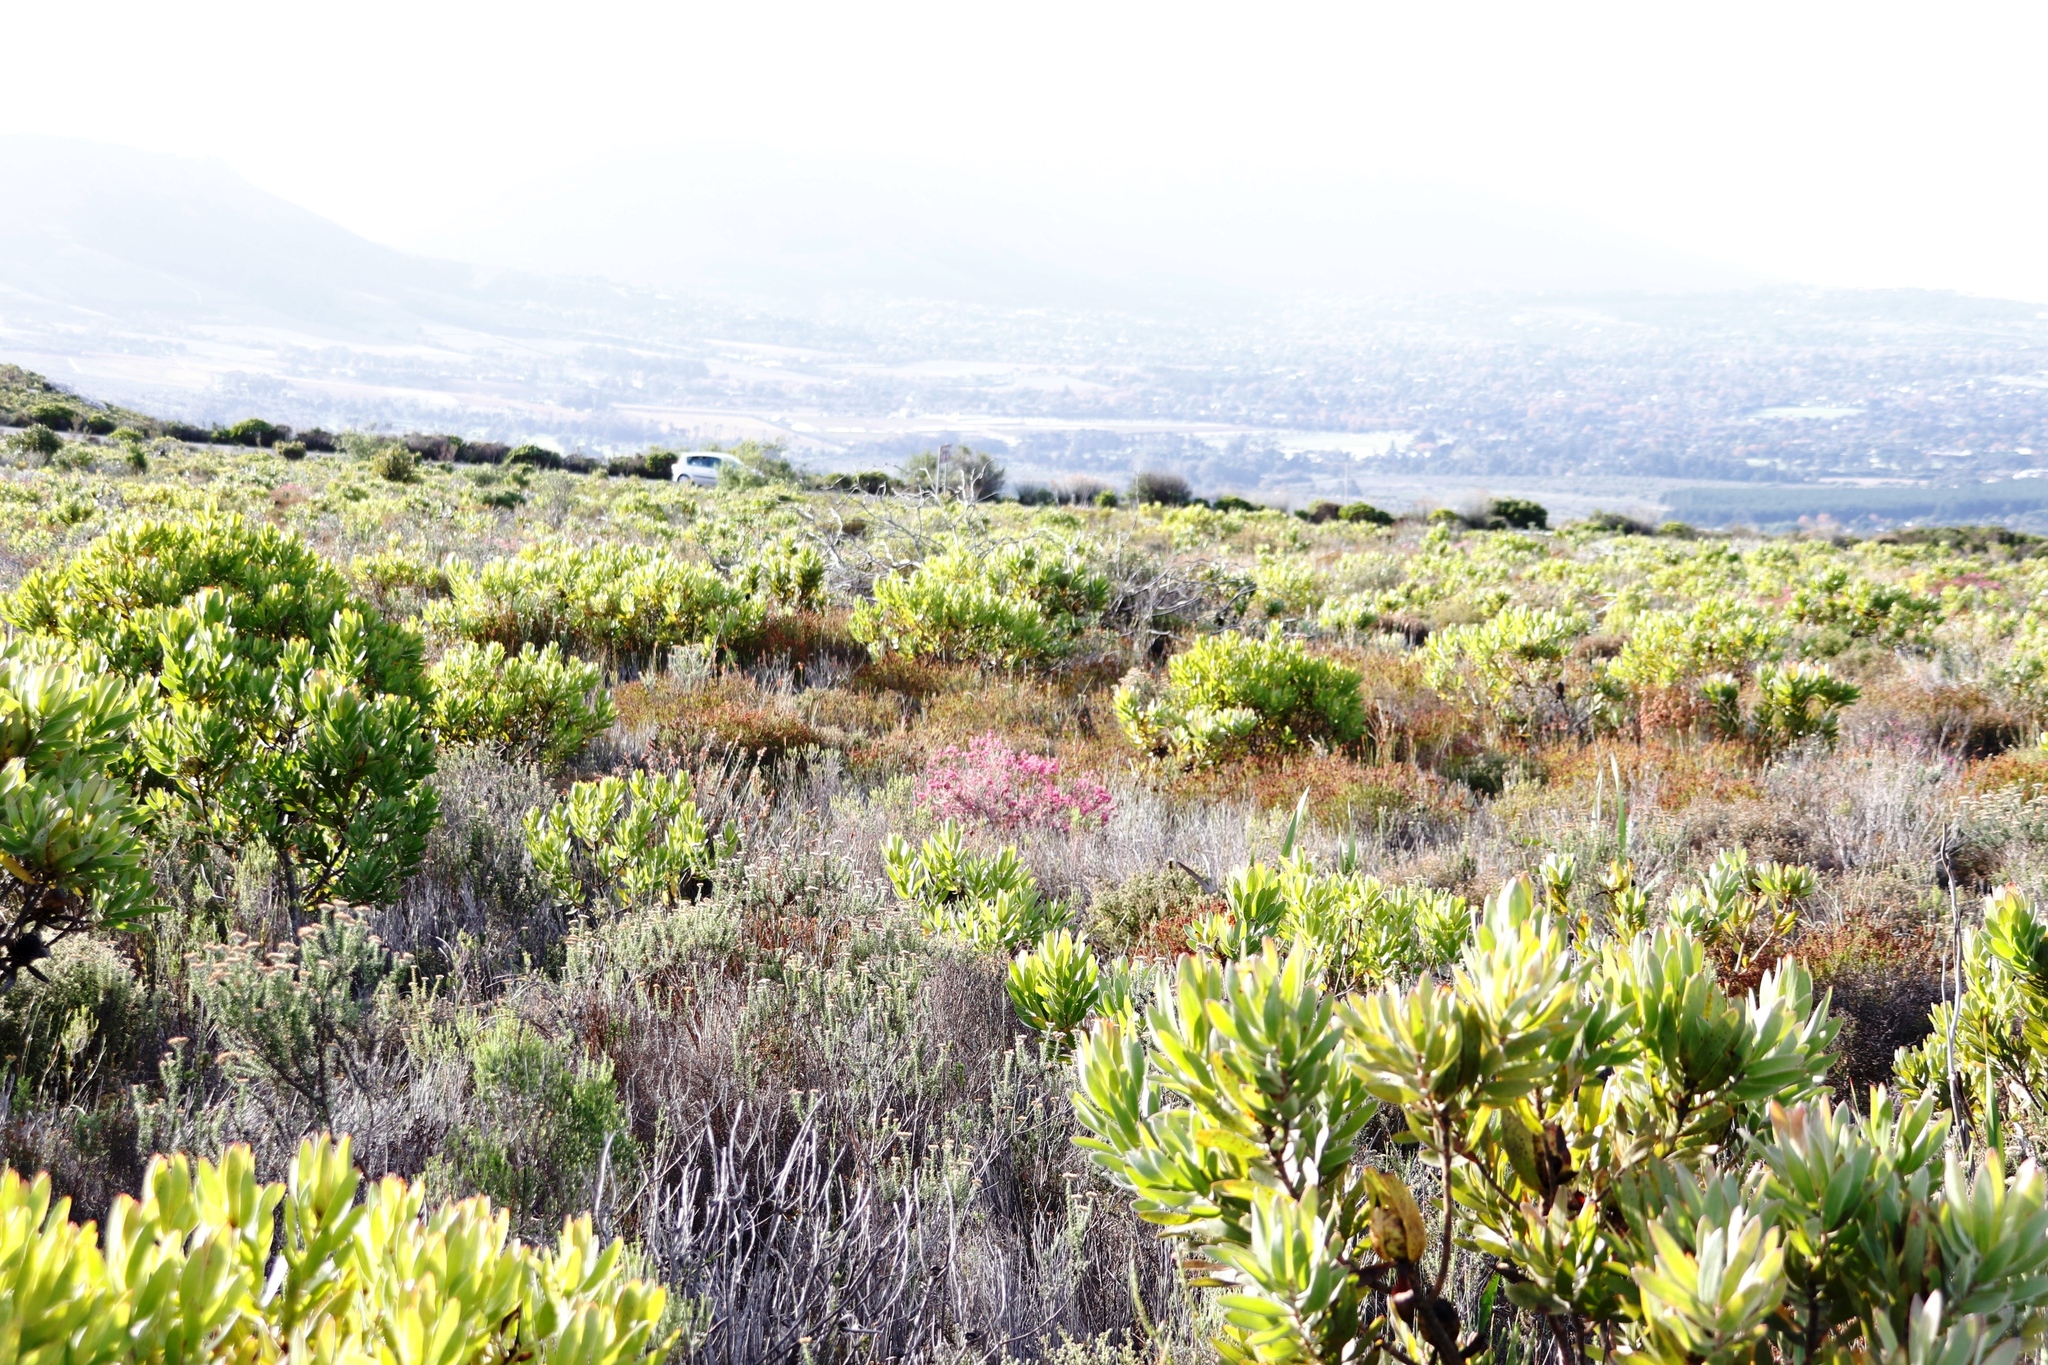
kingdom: Plantae
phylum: Tracheophyta
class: Magnoliopsida
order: Ericales
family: Ericaceae
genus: Erica
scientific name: Erica corifolia
